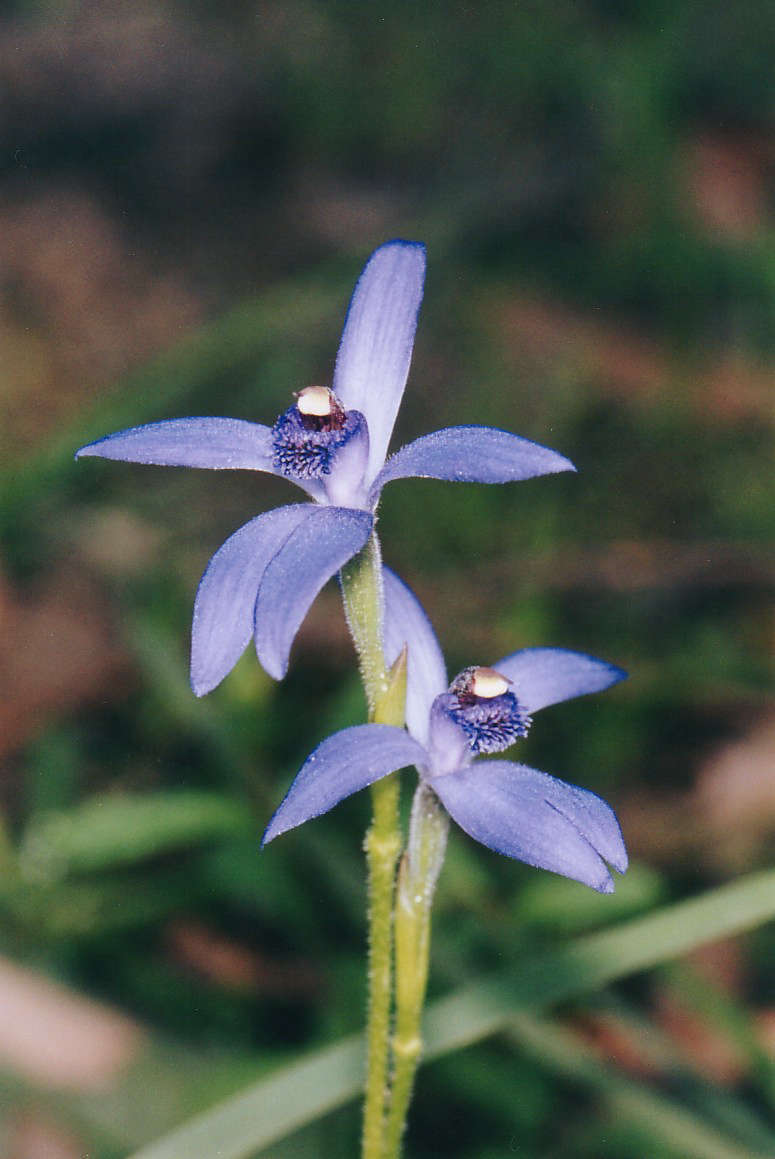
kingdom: Plantae
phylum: Tracheophyta
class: Liliopsida
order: Asparagales
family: Orchidaceae
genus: Pheladenia
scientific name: Pheladenia deformis
